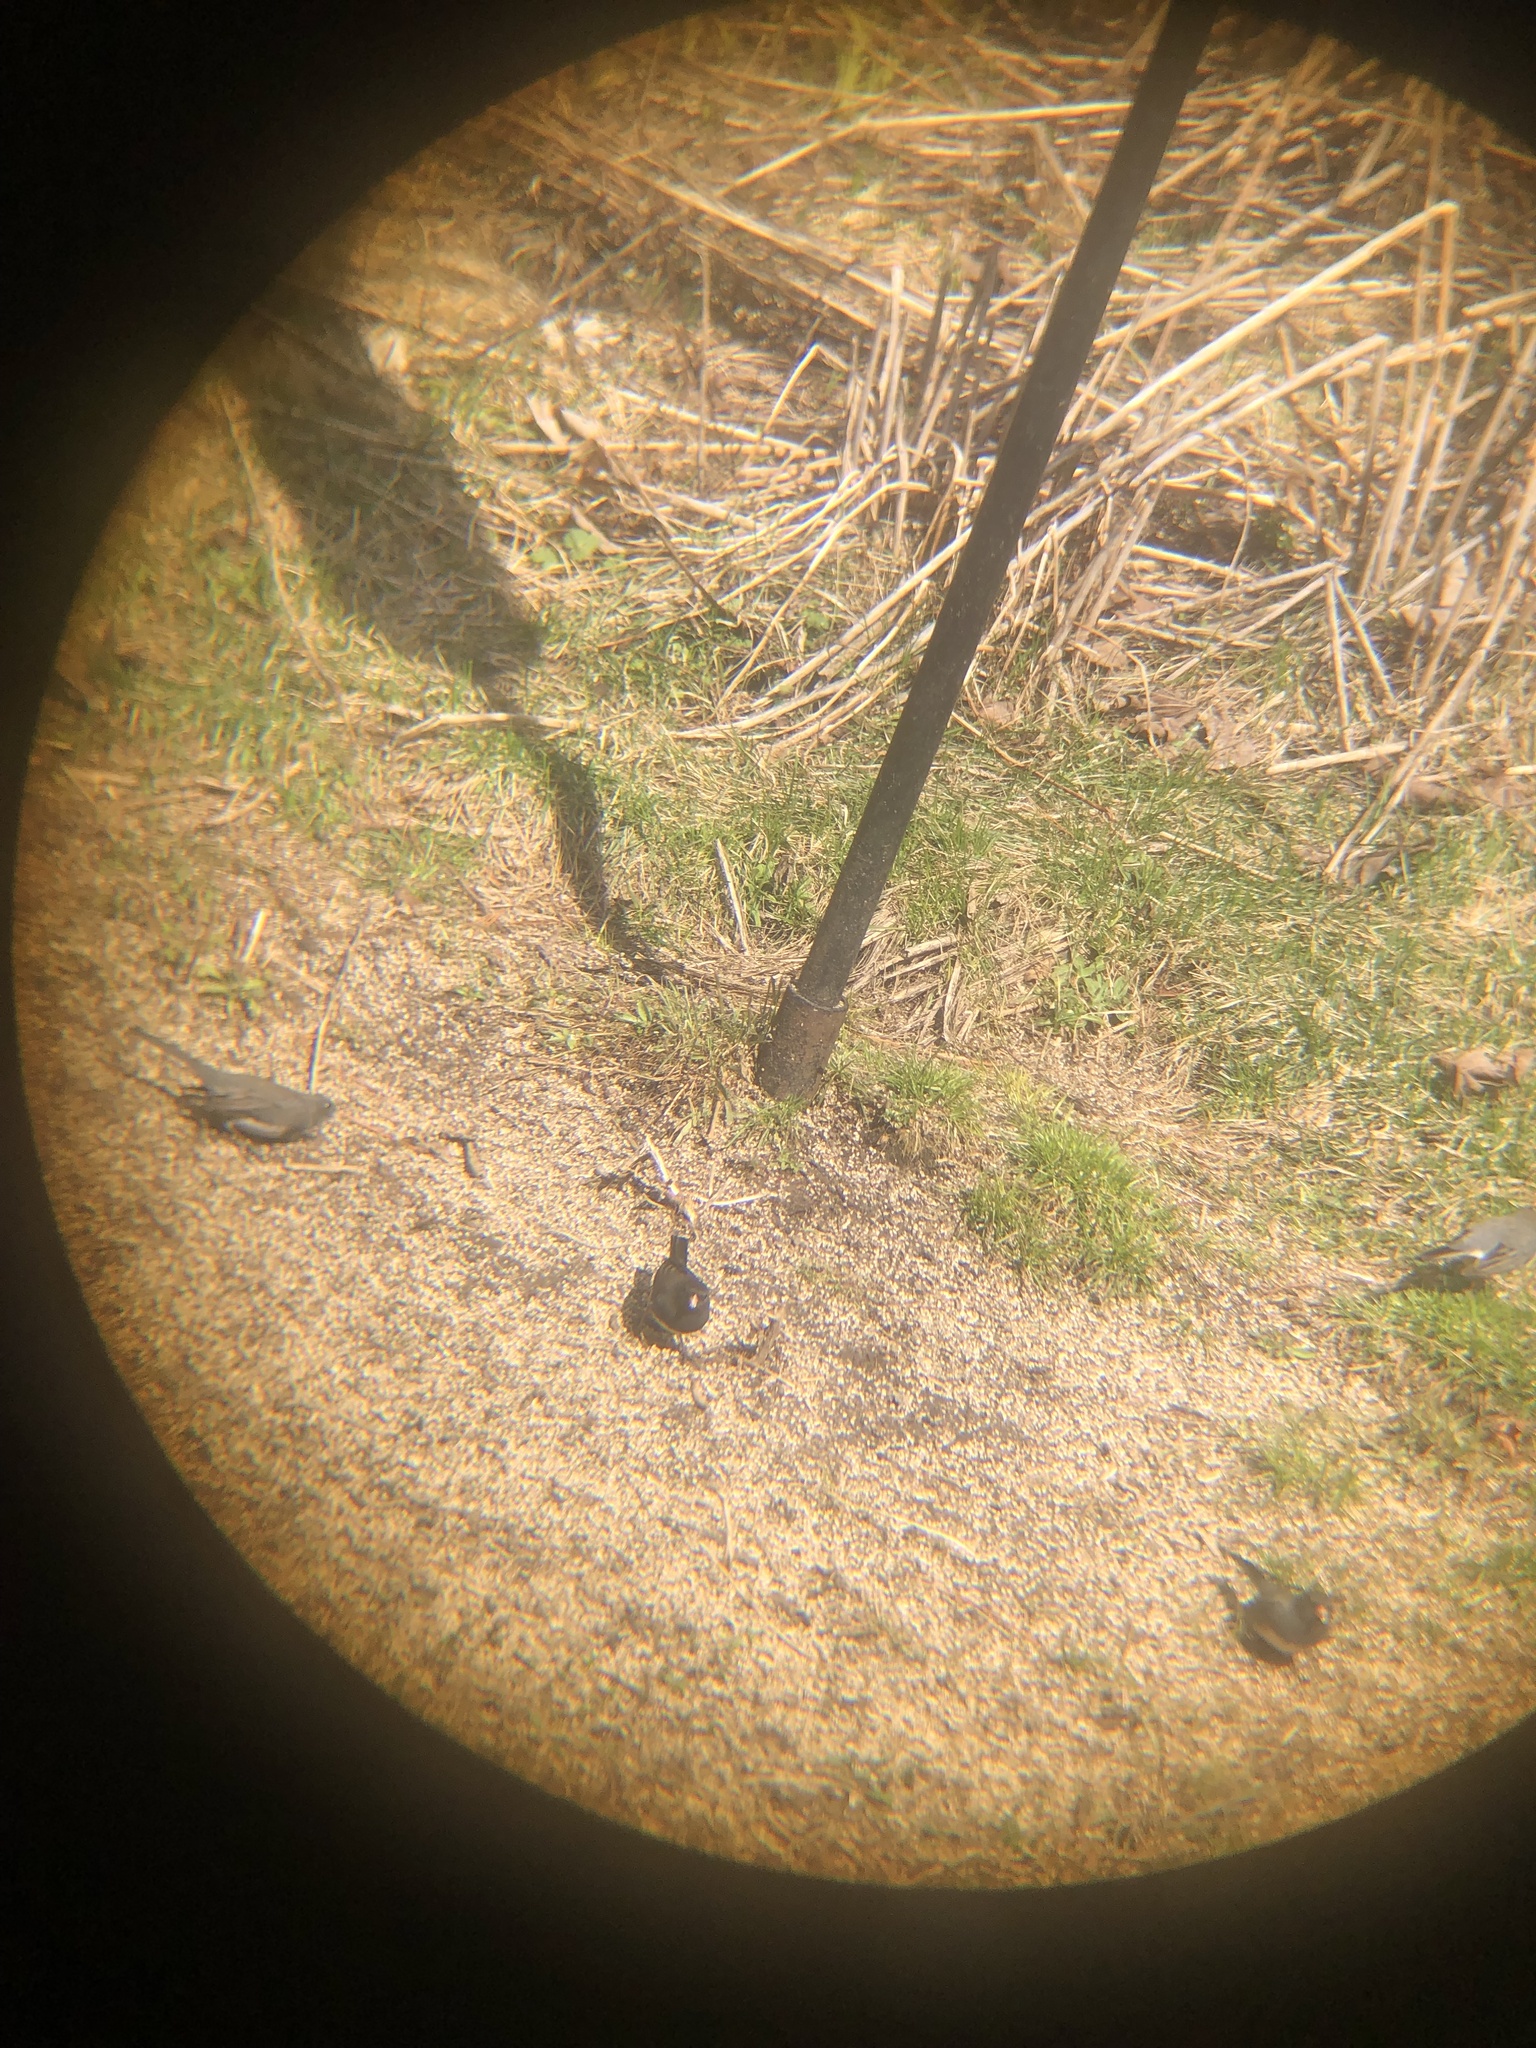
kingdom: Animalia
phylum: Chordata
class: Aves
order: Passeriformes
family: Passerellidae
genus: Junco
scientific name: Junco hyemalis
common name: Dark-eyed junco
